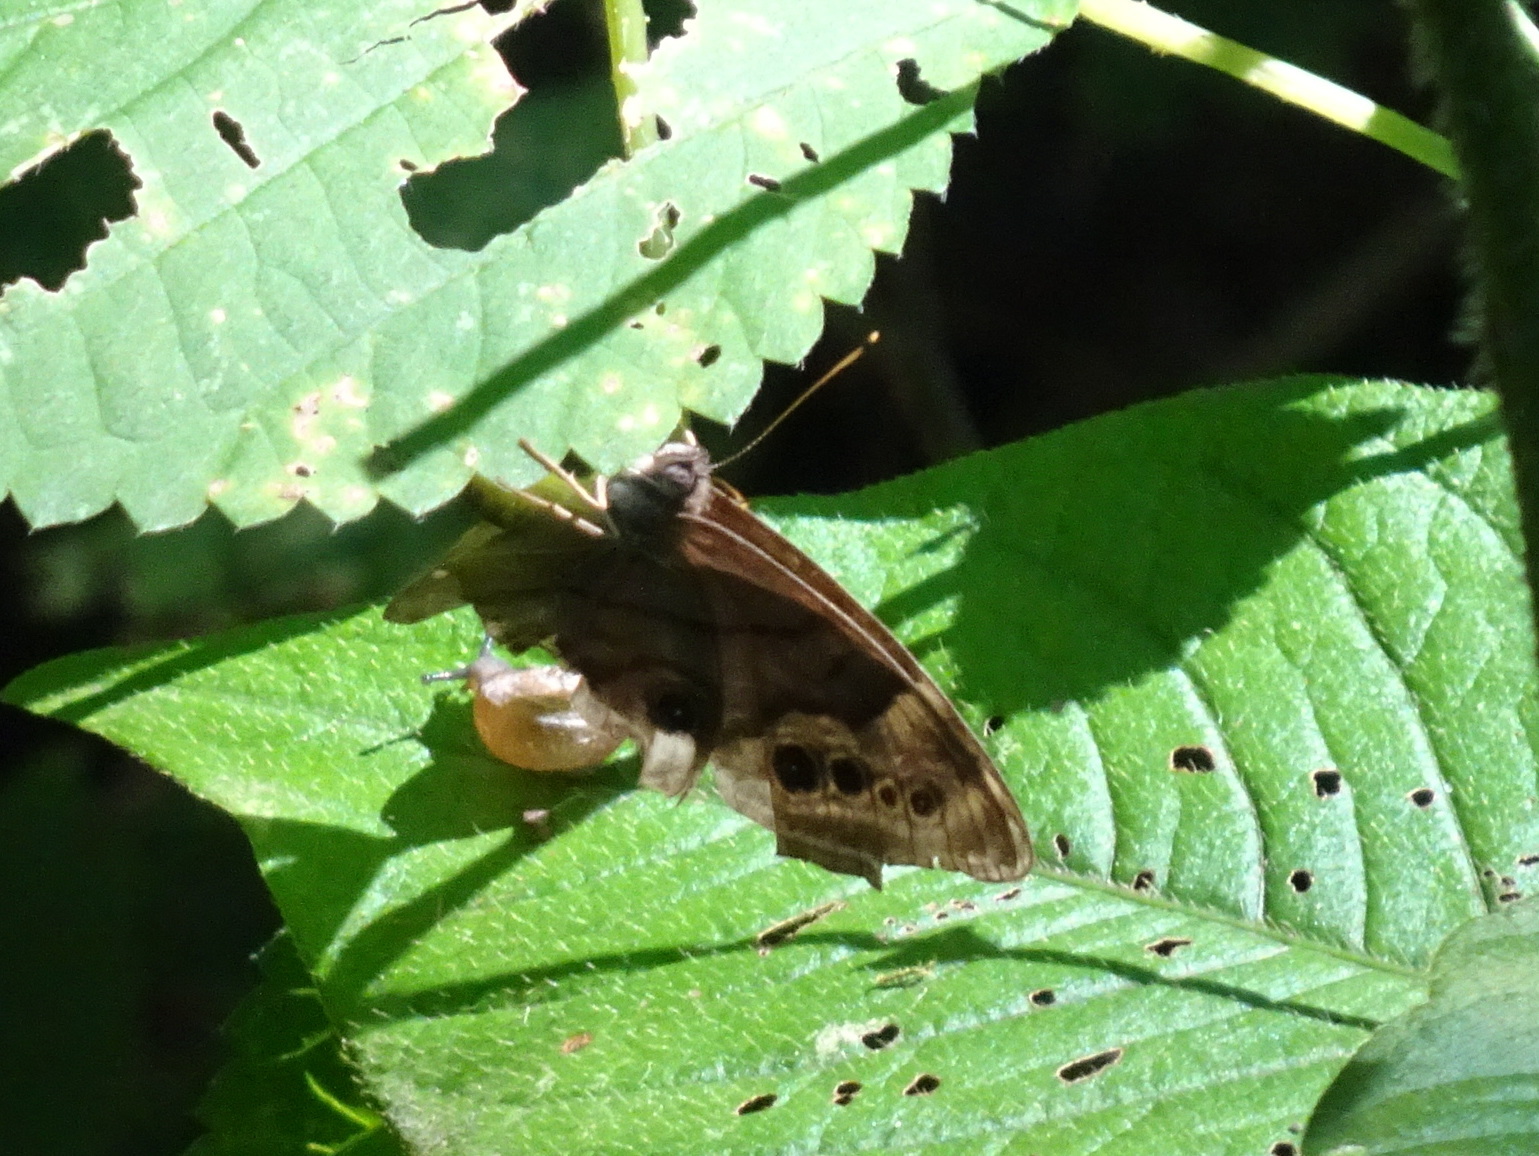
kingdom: Animalia
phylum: Arthropoda
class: Insecta
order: Lepidoptera
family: Nymphalidae
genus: Lethe
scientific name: Lethe anthedon
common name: Northern pearly-eye
